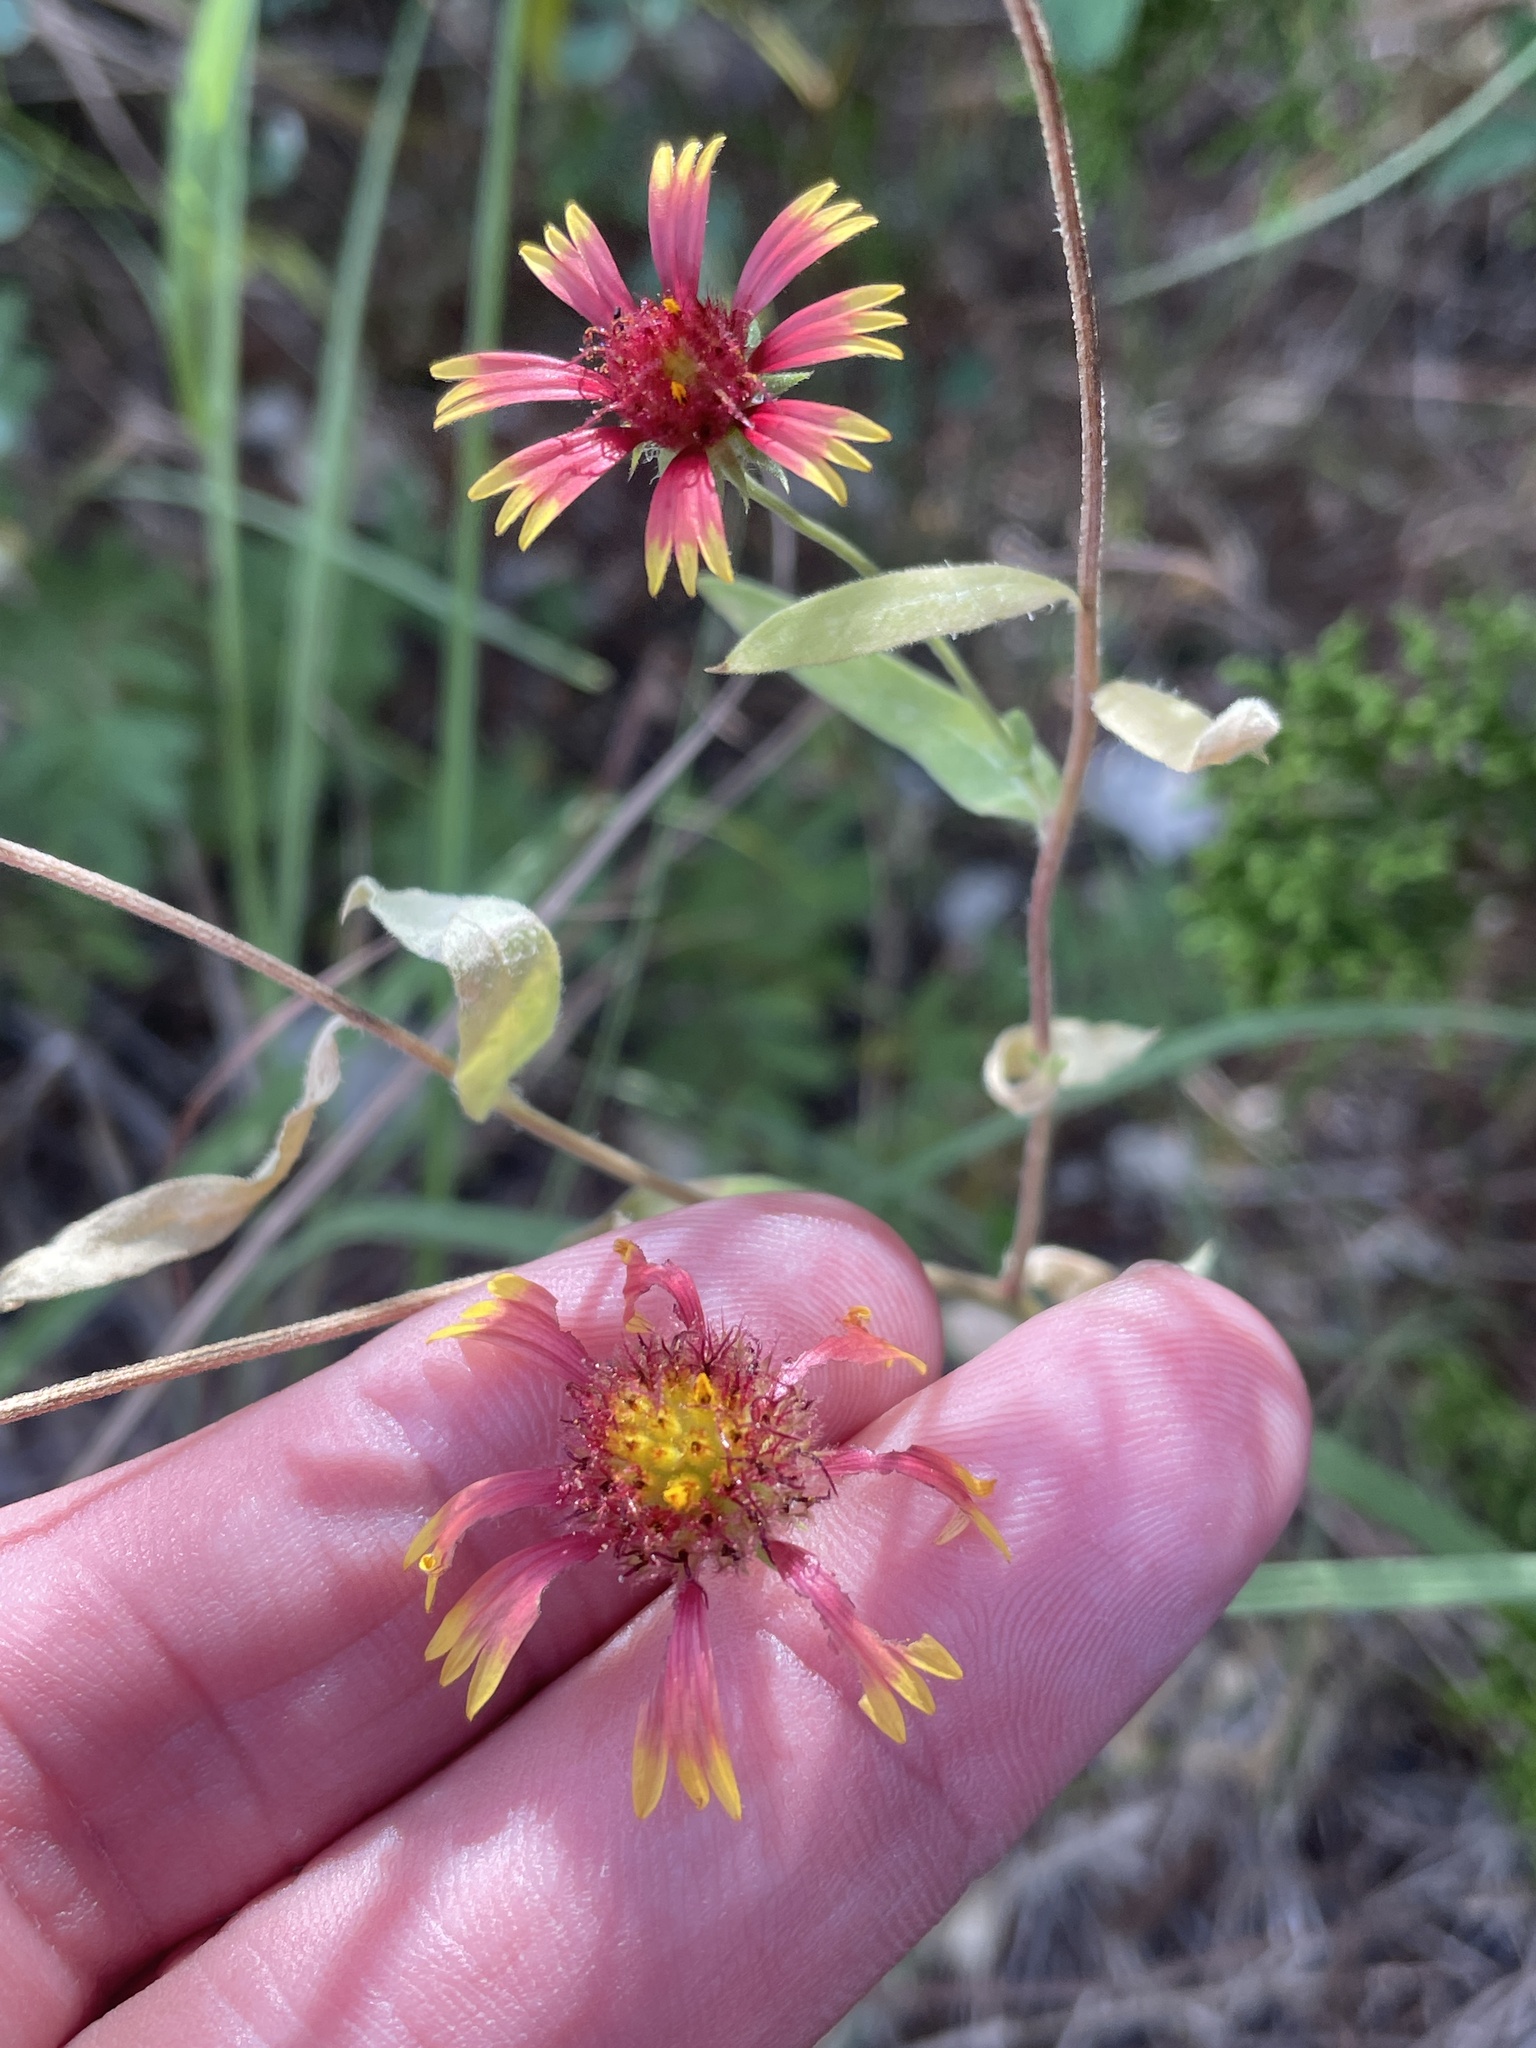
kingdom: Plantae
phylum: Tracheophyta
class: Magnoliopsida
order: Asterales
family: Asteraceae
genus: Gaillardia
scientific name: Gaillardia pulchella
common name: Firewheel
